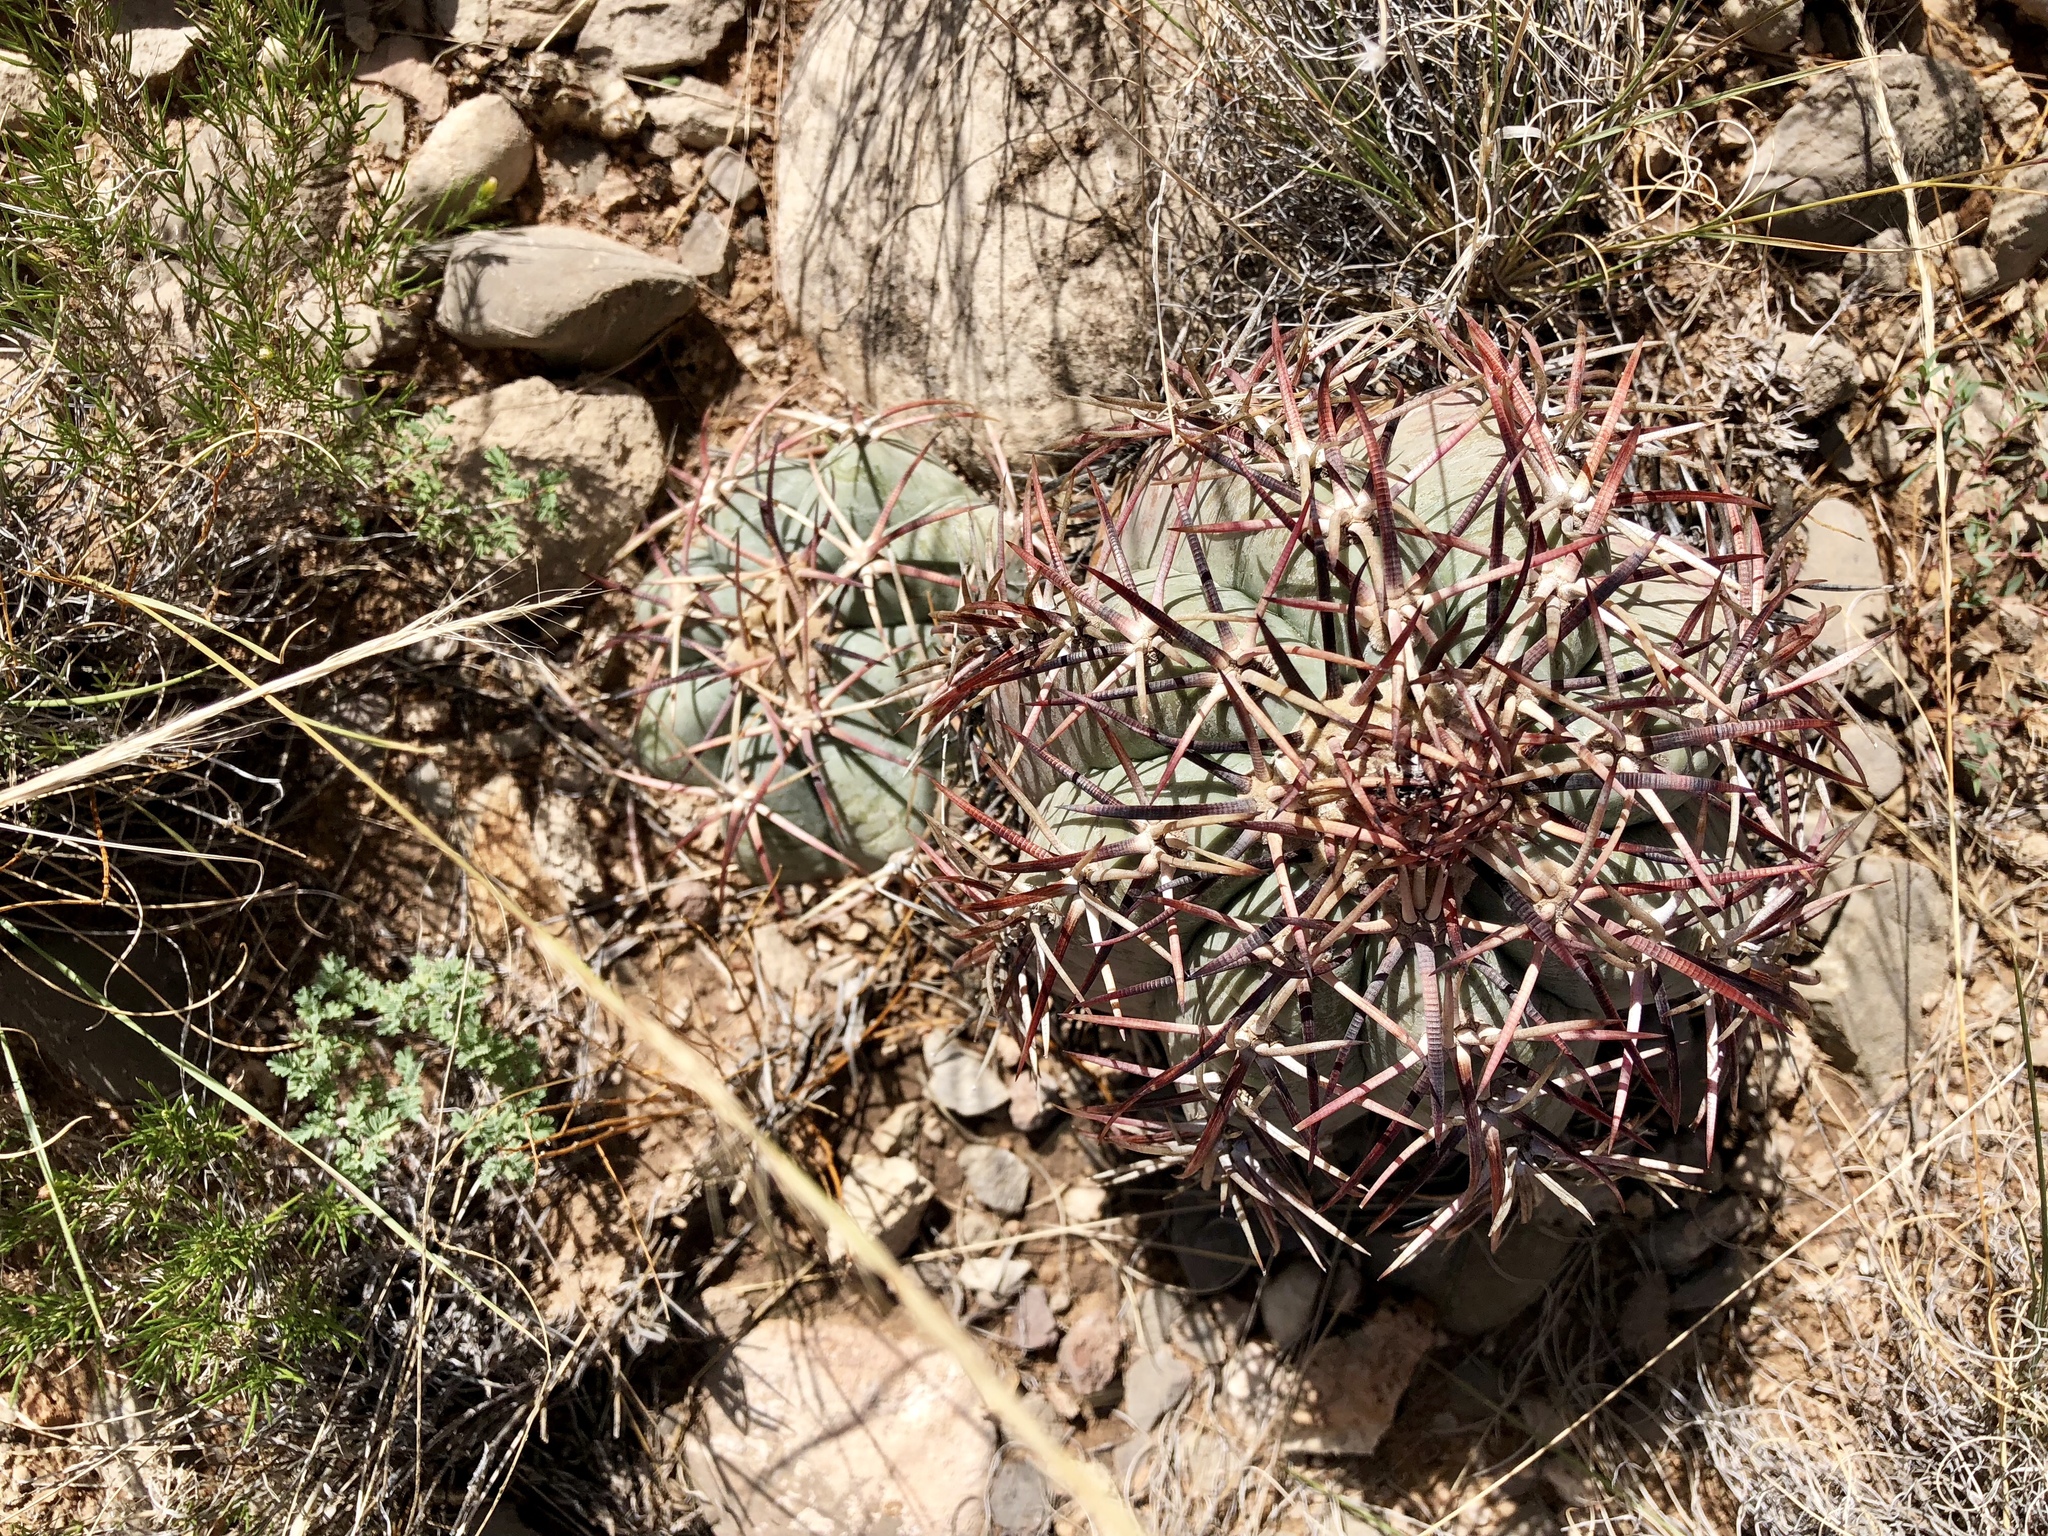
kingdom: Plantae
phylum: Tracheophyta
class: Magnoliopsida
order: Caryophyllales
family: Cactaceae
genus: Echinocactus
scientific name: Echinocactus horizonthalonius
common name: Devilshead
